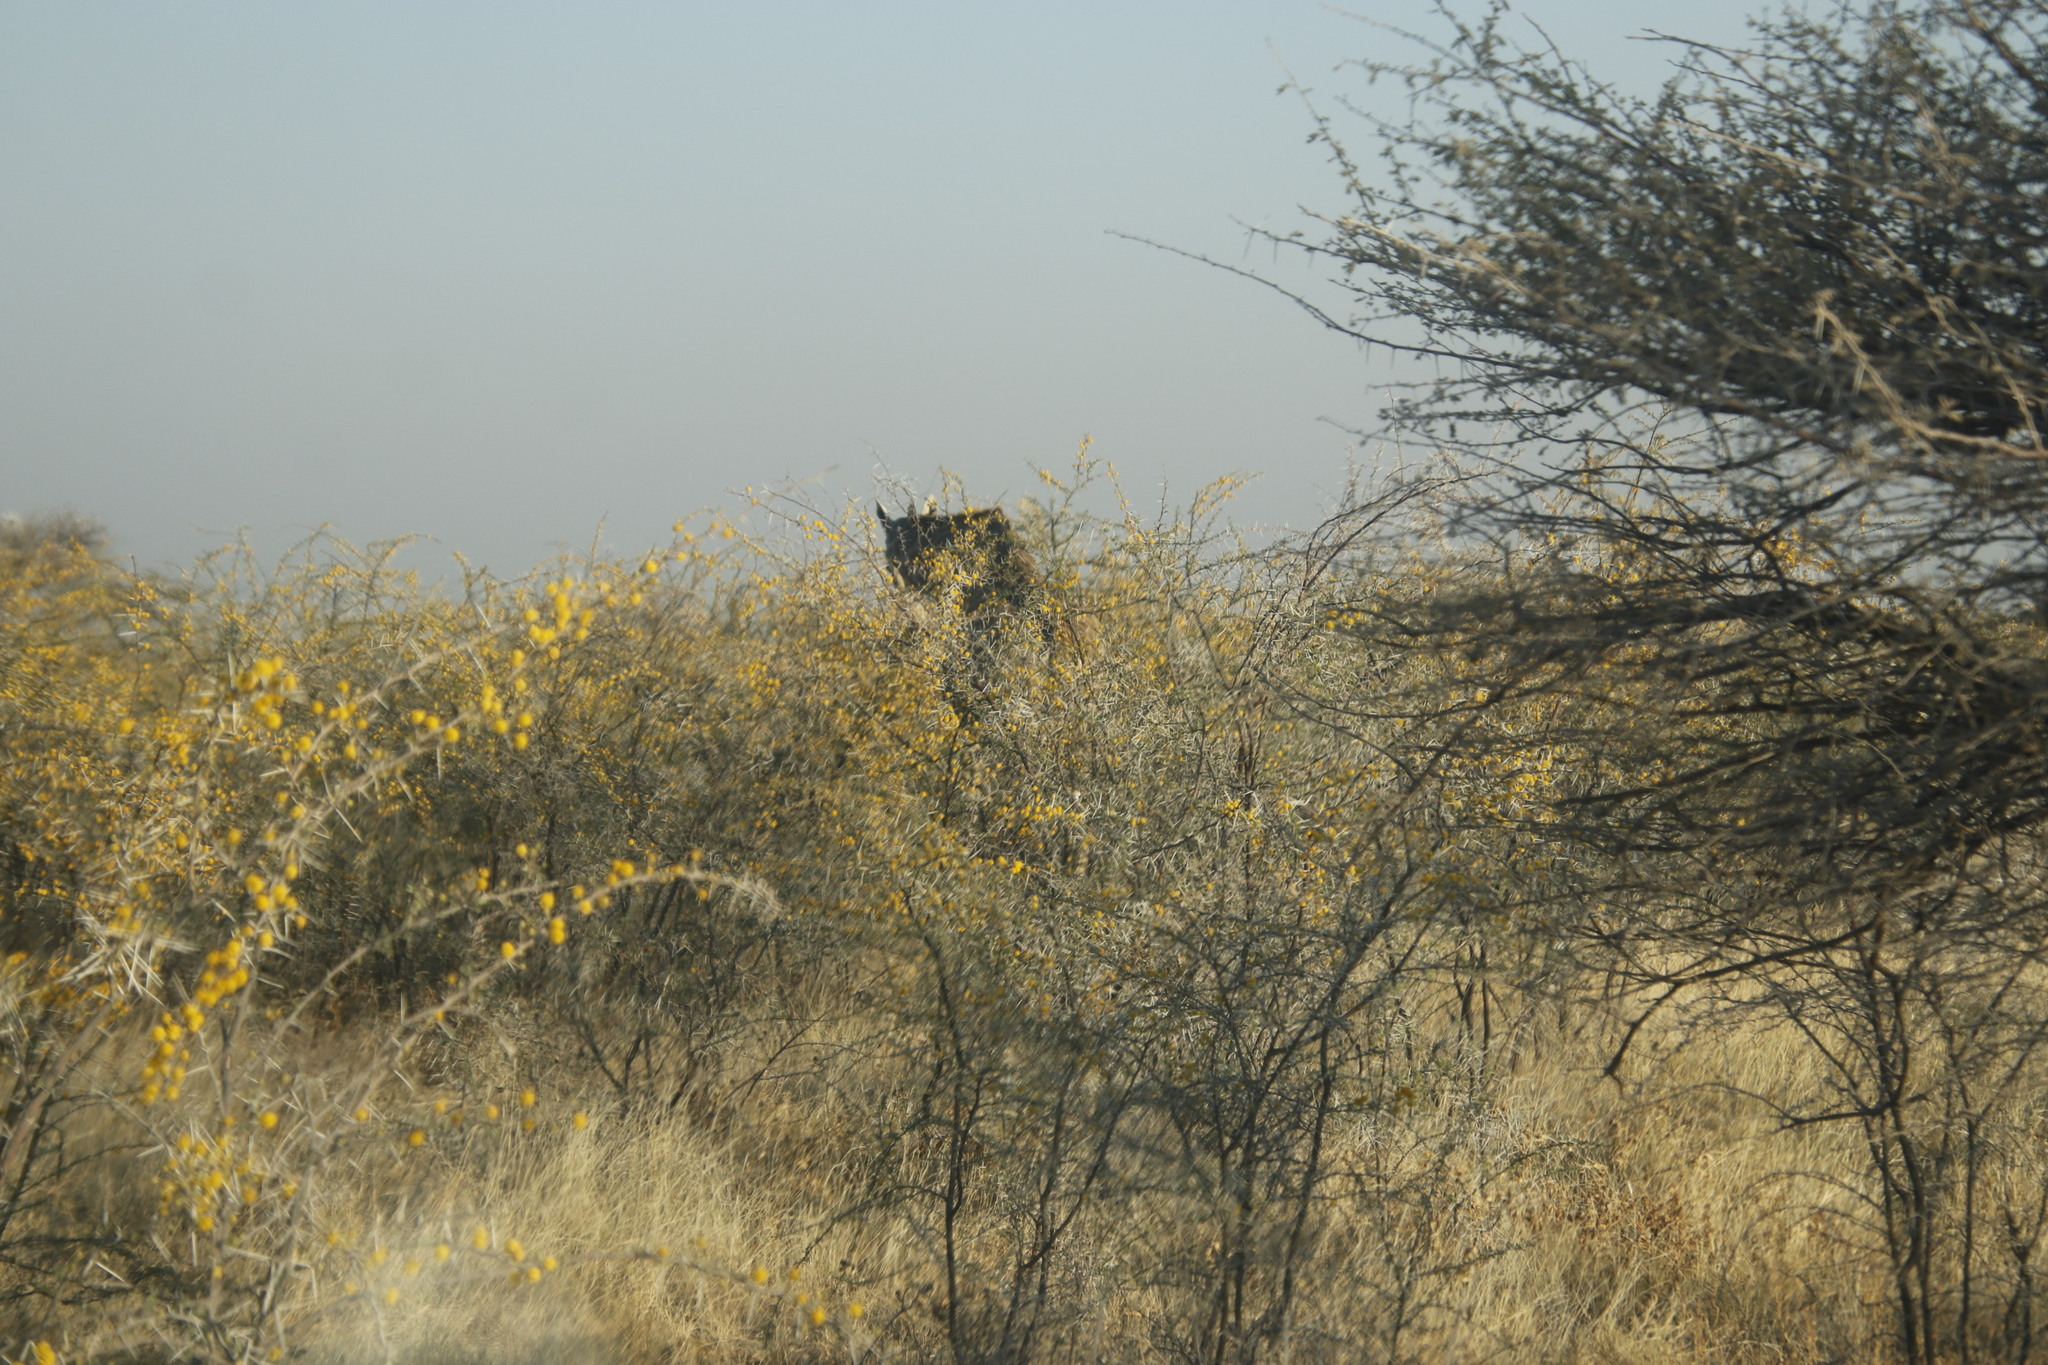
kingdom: Plantae
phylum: Tracheophyta
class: Magnoliopsida
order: Fabales
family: Fabaceae
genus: Vachellia
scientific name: Vachellia nebrownii
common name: Water acacia
